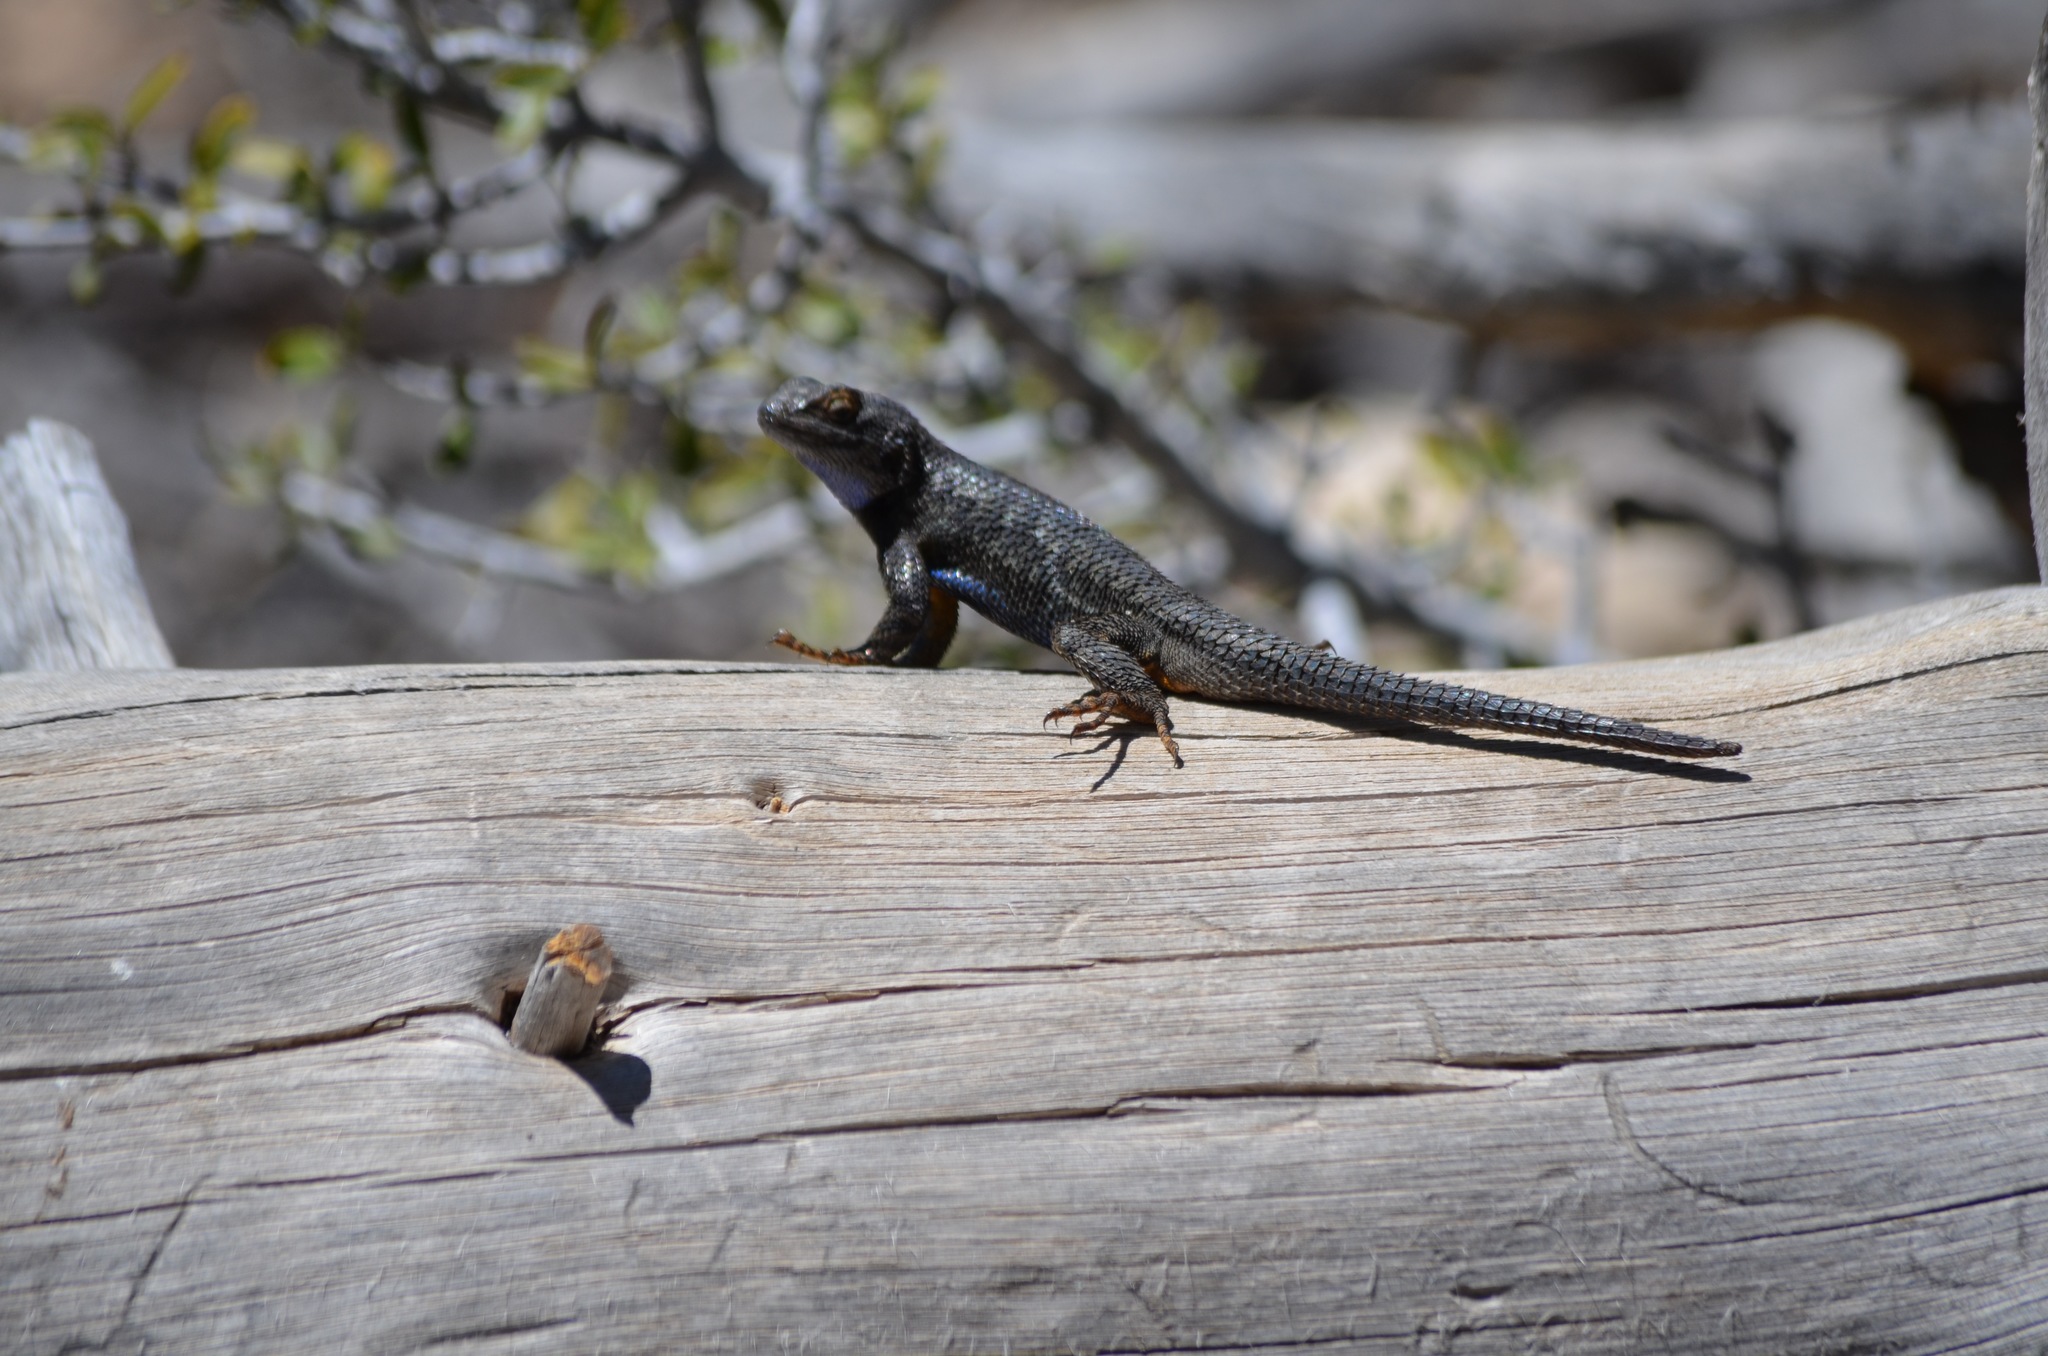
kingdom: Animalia
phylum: Chordata
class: Squamata
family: Phrynosomatidae
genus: Sceloporus
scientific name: Sceloporus occidentalis
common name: Western fence lizard
